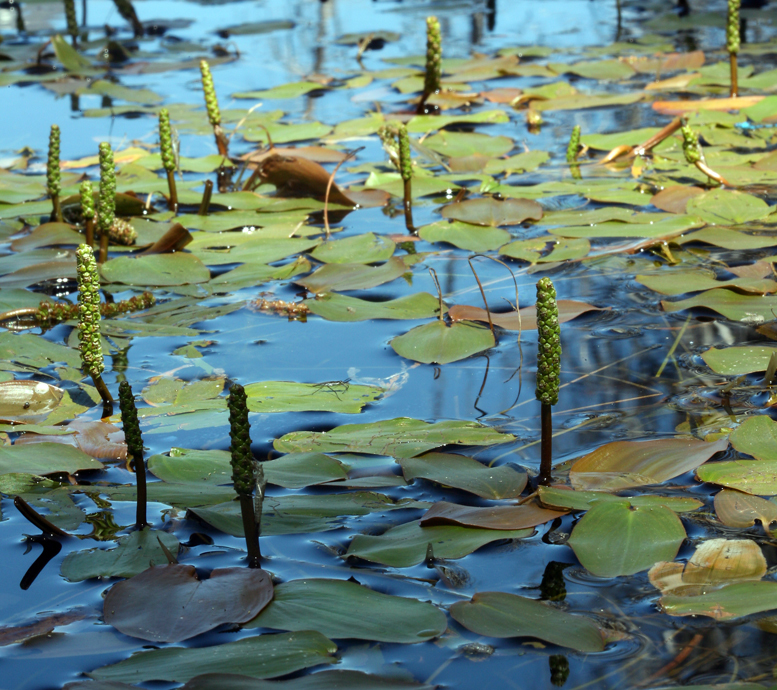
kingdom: Plantae
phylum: Tracheophyta
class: Liliopsida
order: Alismatales
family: Potamogetonaceae
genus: Potamogeton
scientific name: Potamogeton natans
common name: Broad-leaved pondweed
